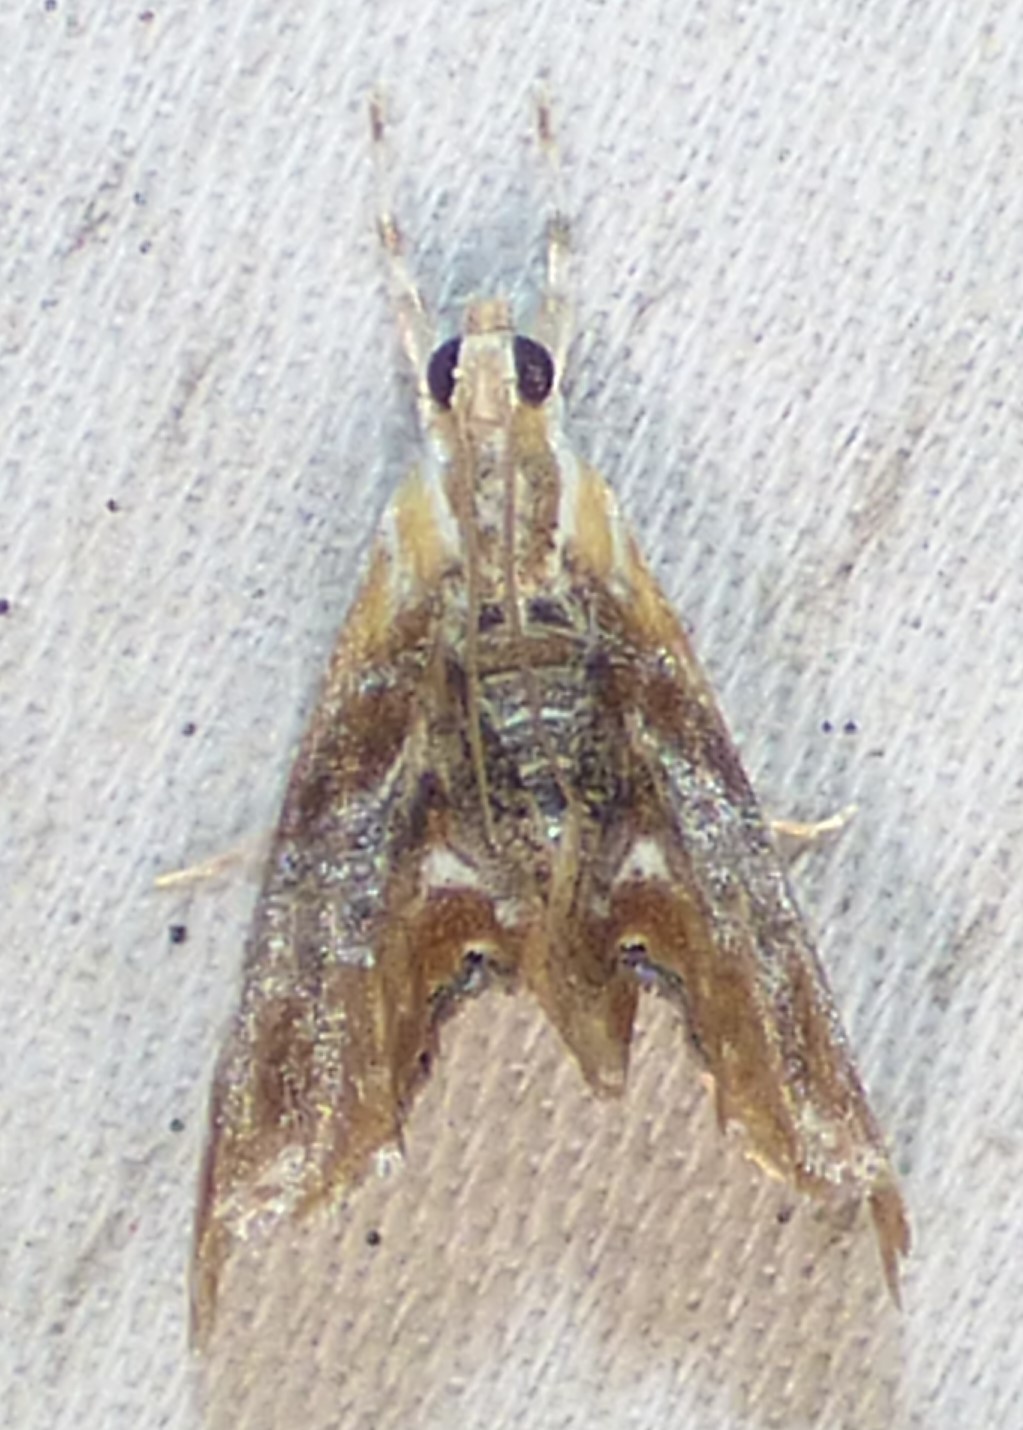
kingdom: Animalia
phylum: Arthropoda
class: Insecta
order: Lepidoptera
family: Crambidae
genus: Dicymolomia
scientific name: Dicymolomia julianalis
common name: Julia's dicymolomia moth
